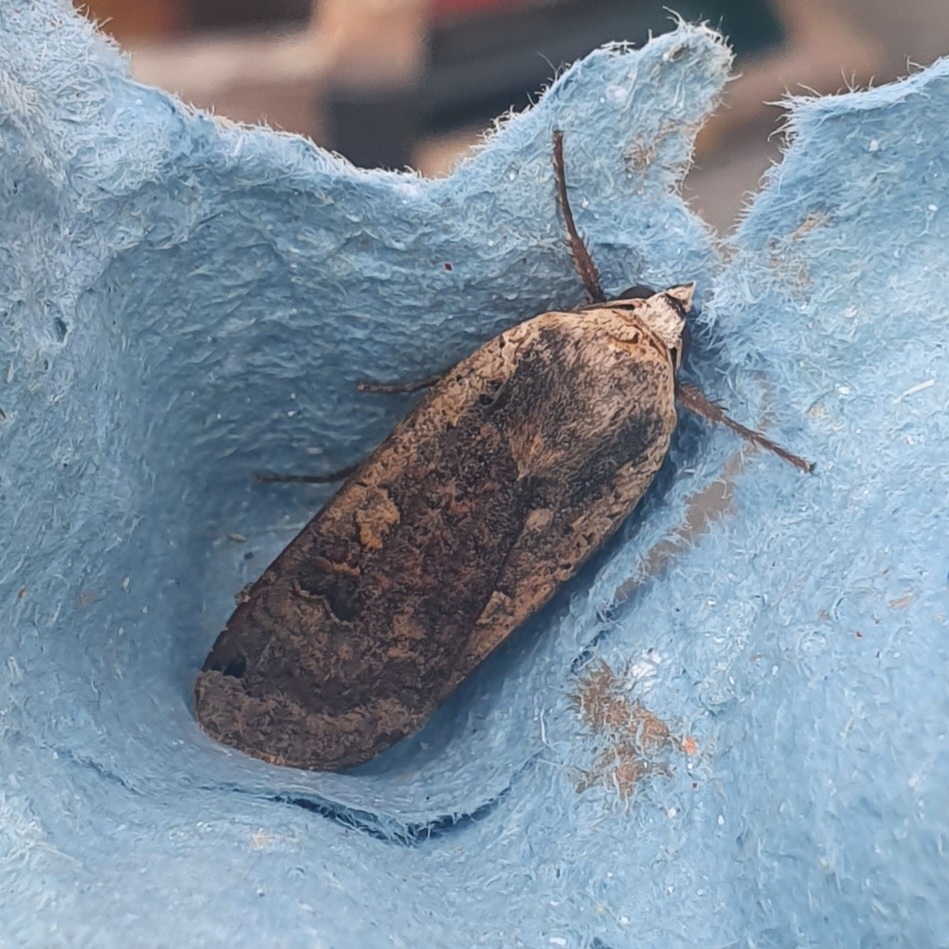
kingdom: Animalia
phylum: Arthropoda
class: Insecta
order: Lepidoptera
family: Noctuidae
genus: Noctua
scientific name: Noctua pronuba
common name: Large yellow underwing
